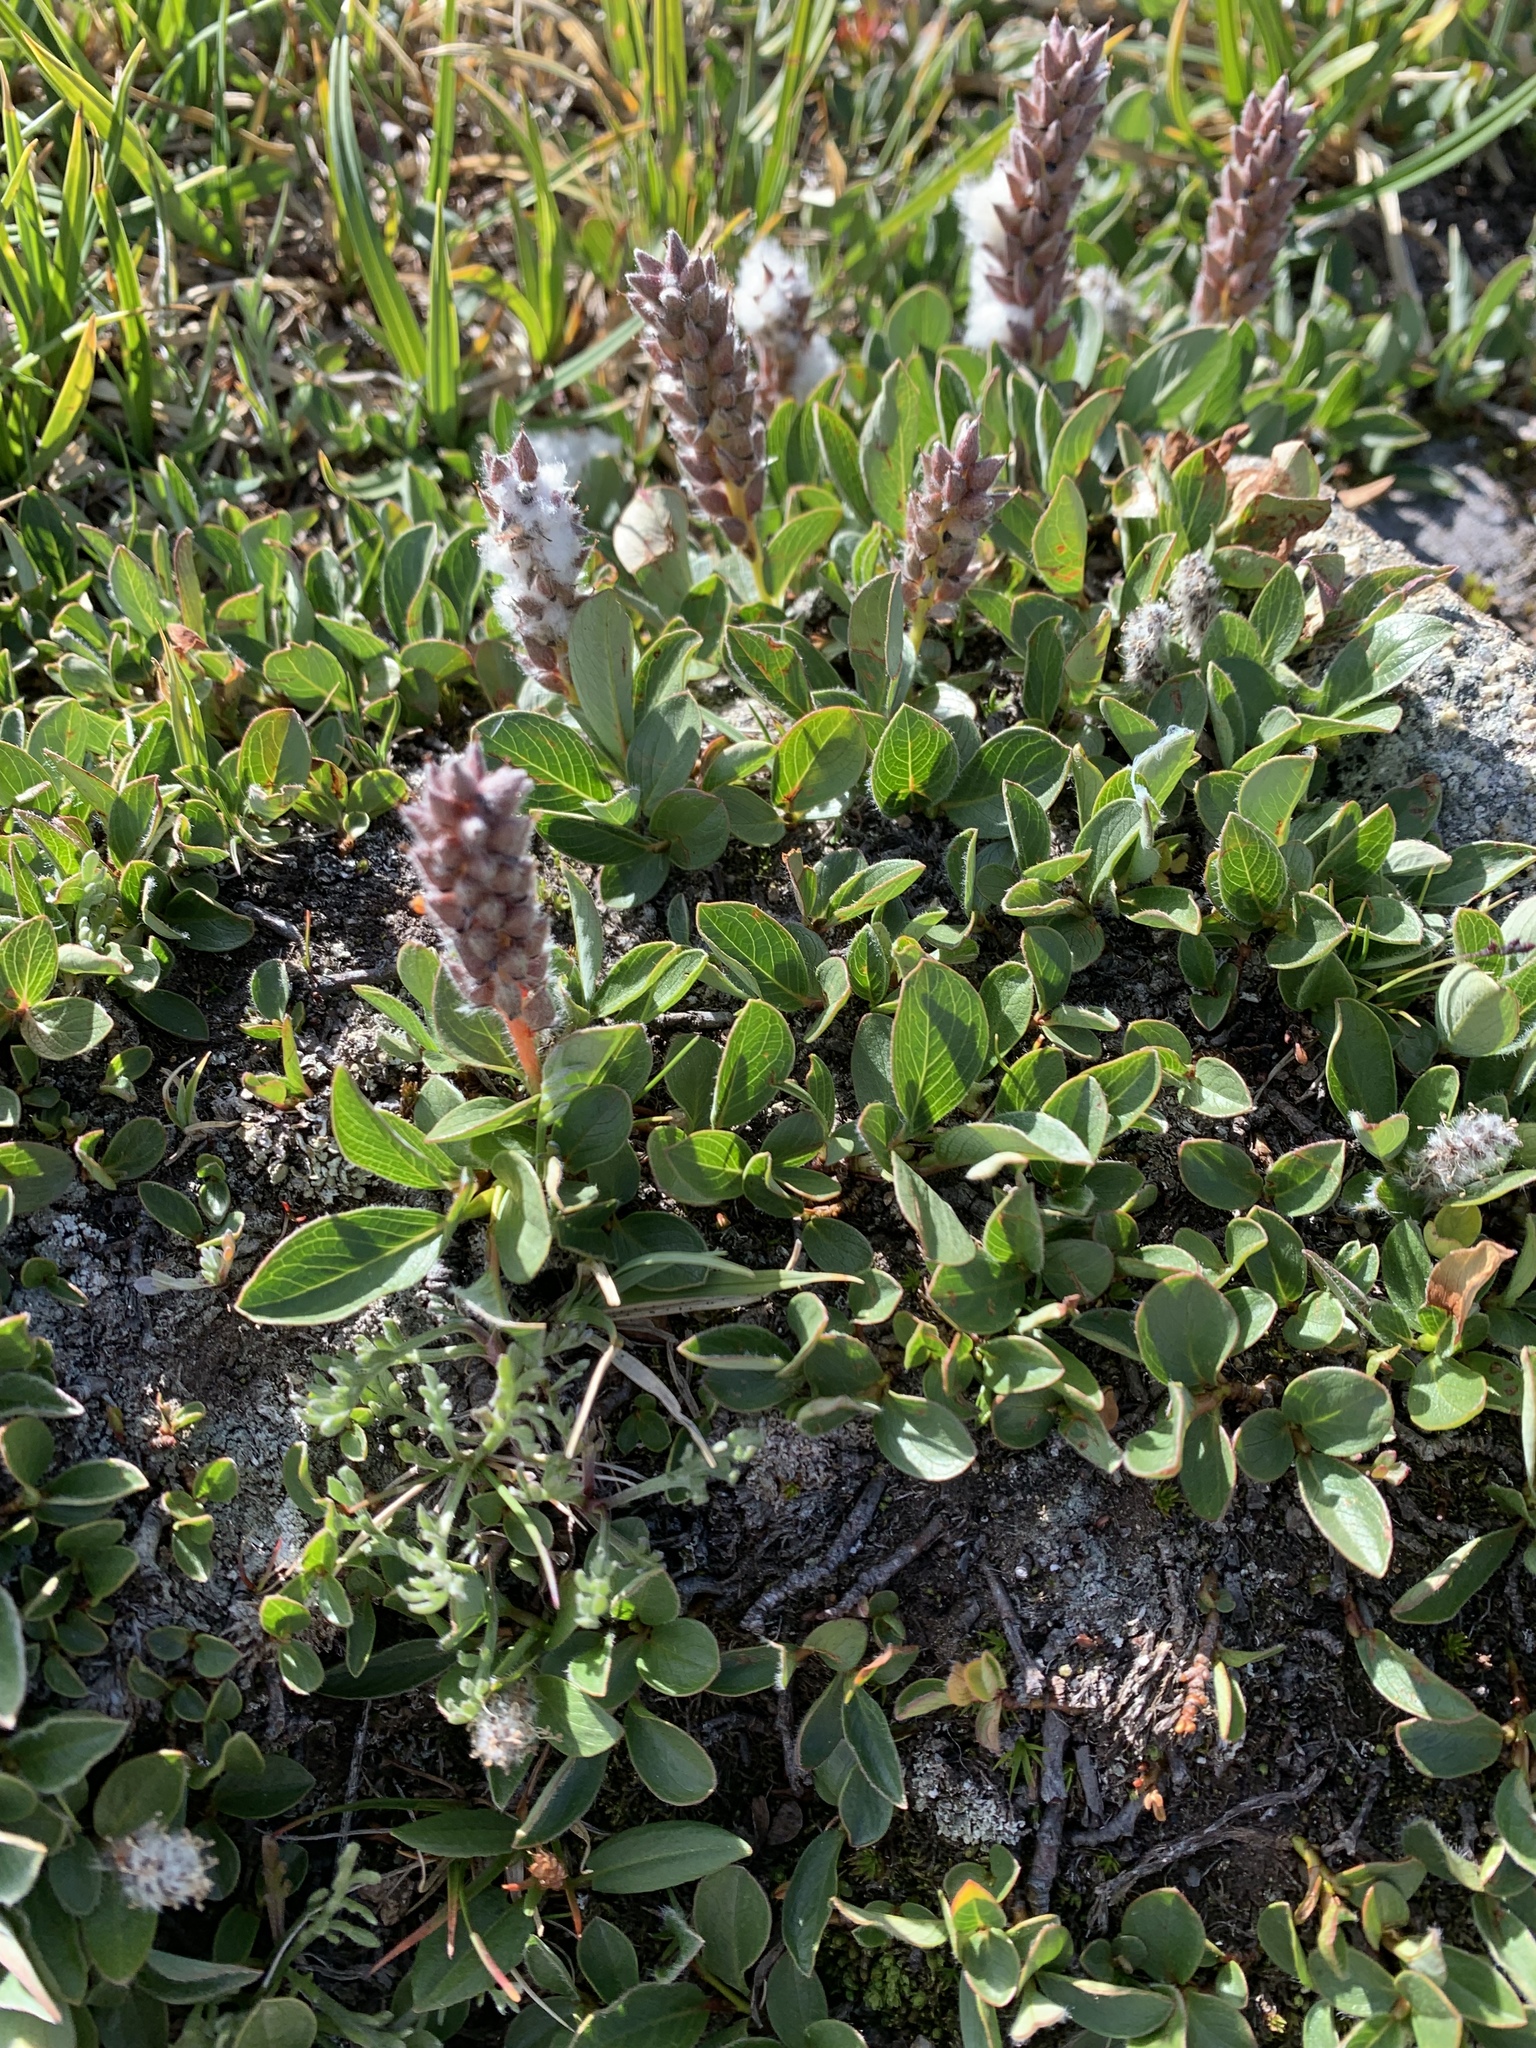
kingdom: Plantae
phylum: Tracheophyta
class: Magnoliopsida
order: Malpighiales
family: Salicaceae
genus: Salix
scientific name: Salix petrophila
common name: Rocky mountain willow
